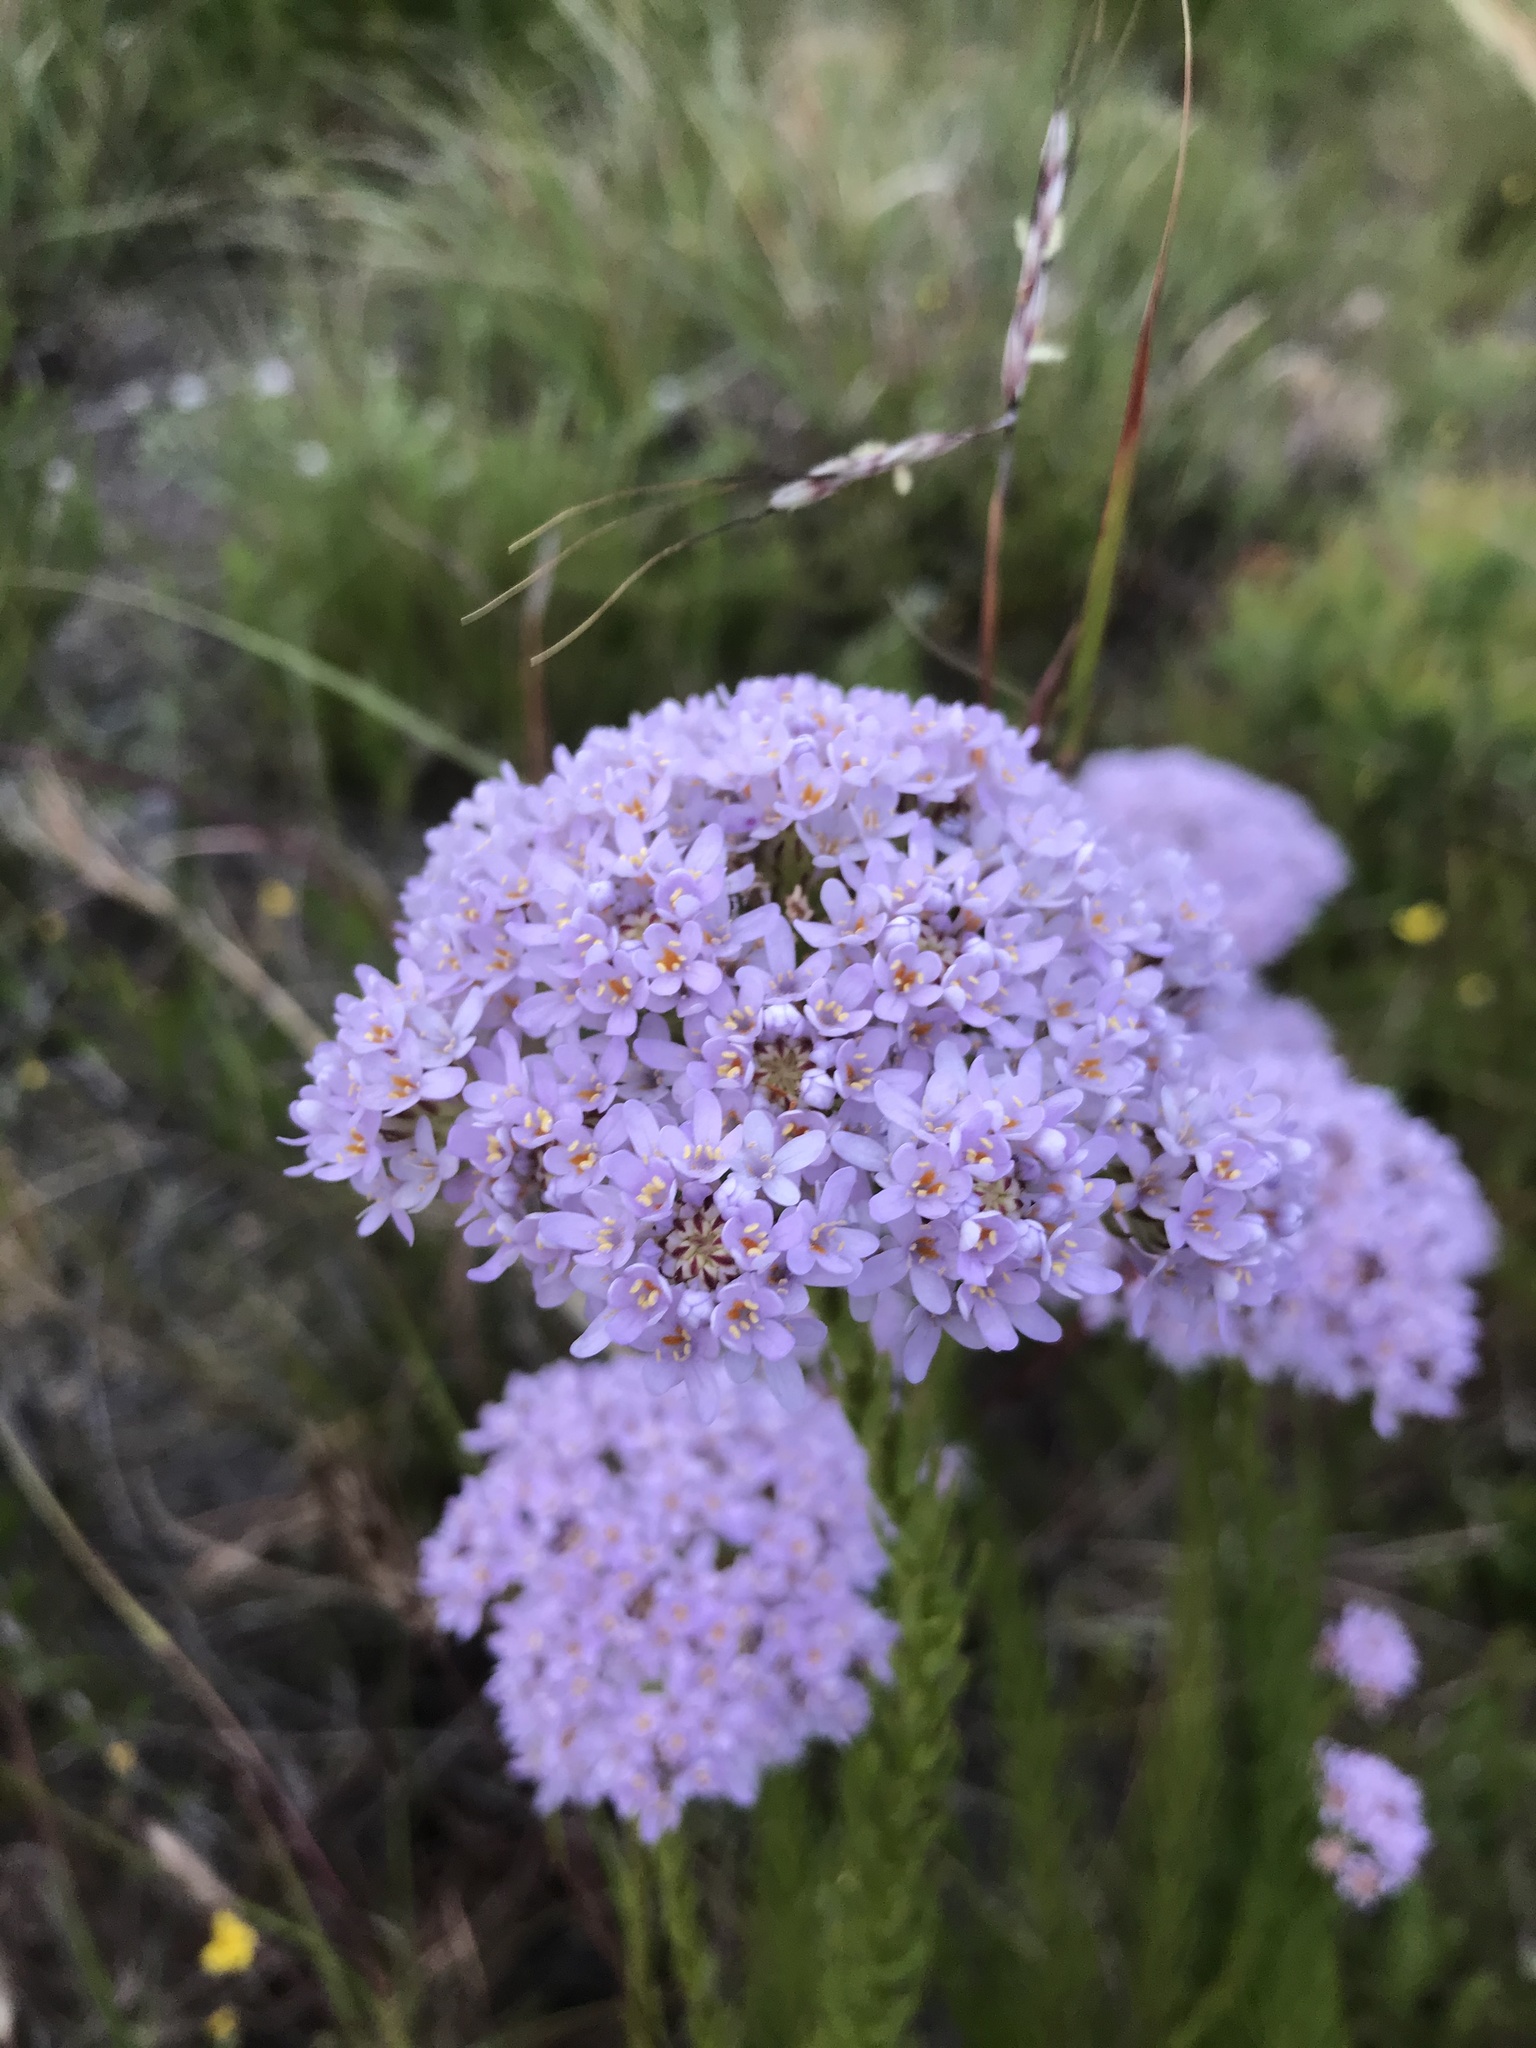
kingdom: Plantae
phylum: Tracheophyta
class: Magnoliopsida
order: Lamiales
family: Scrophulariaceae
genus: Pseudoselago
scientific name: Pseudoselago spuria
